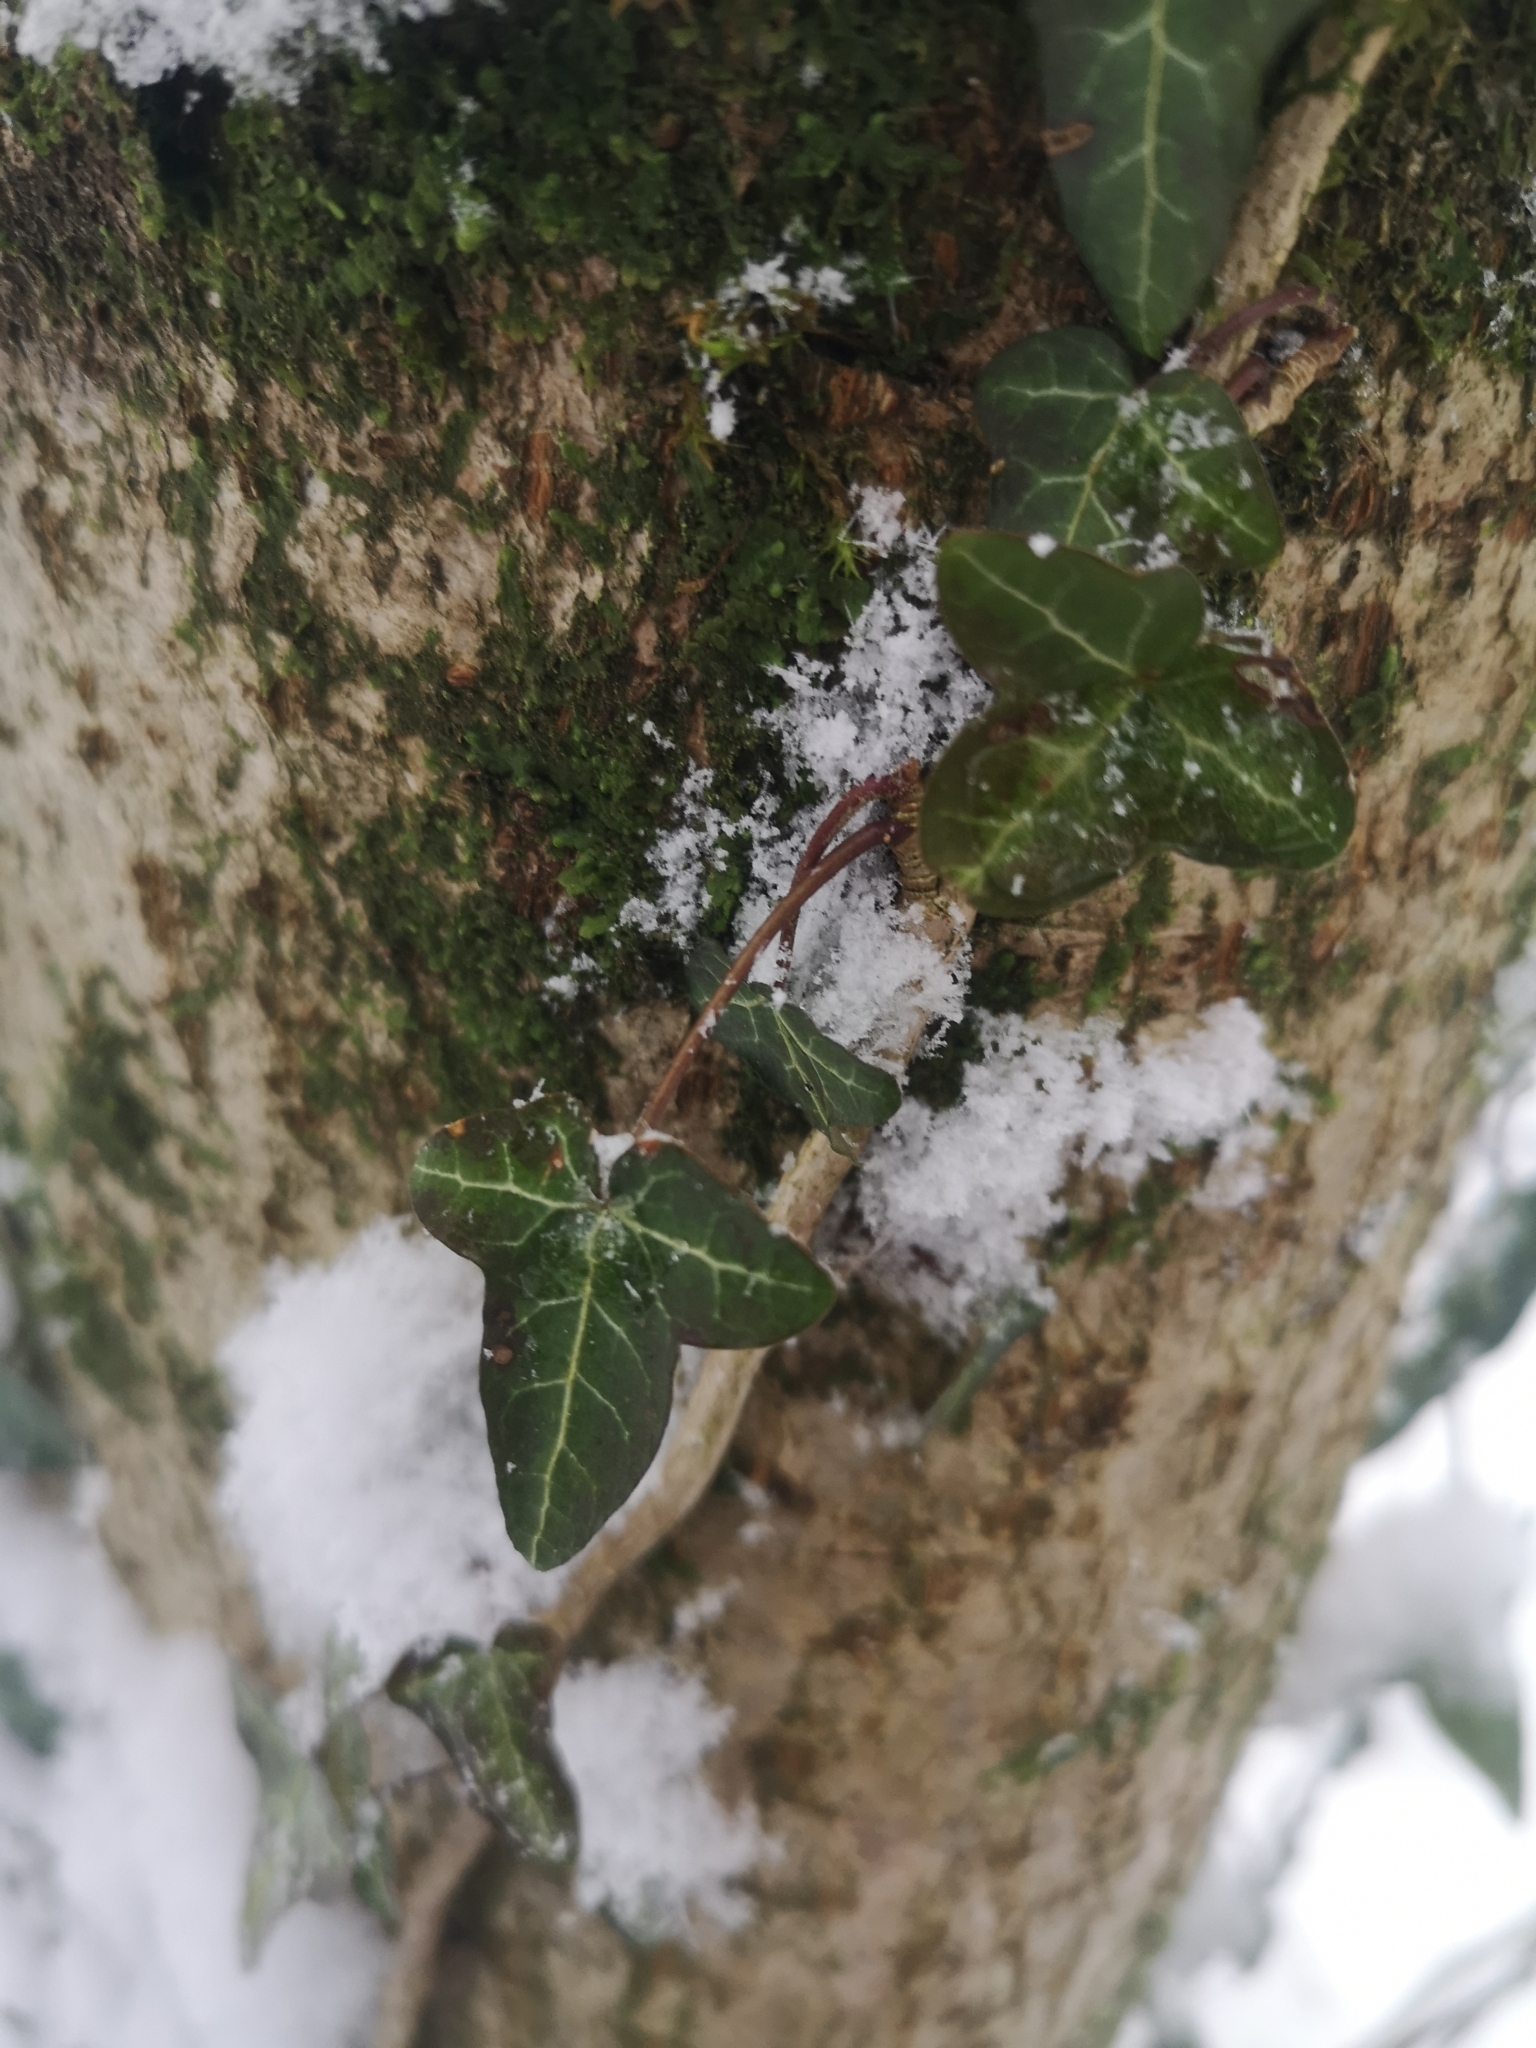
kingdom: Plantae
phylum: Tracheophyta
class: Magnoliopsida
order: Apiales
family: Araliaceae
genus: Hedera
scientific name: Hedera helix
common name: Ivy
